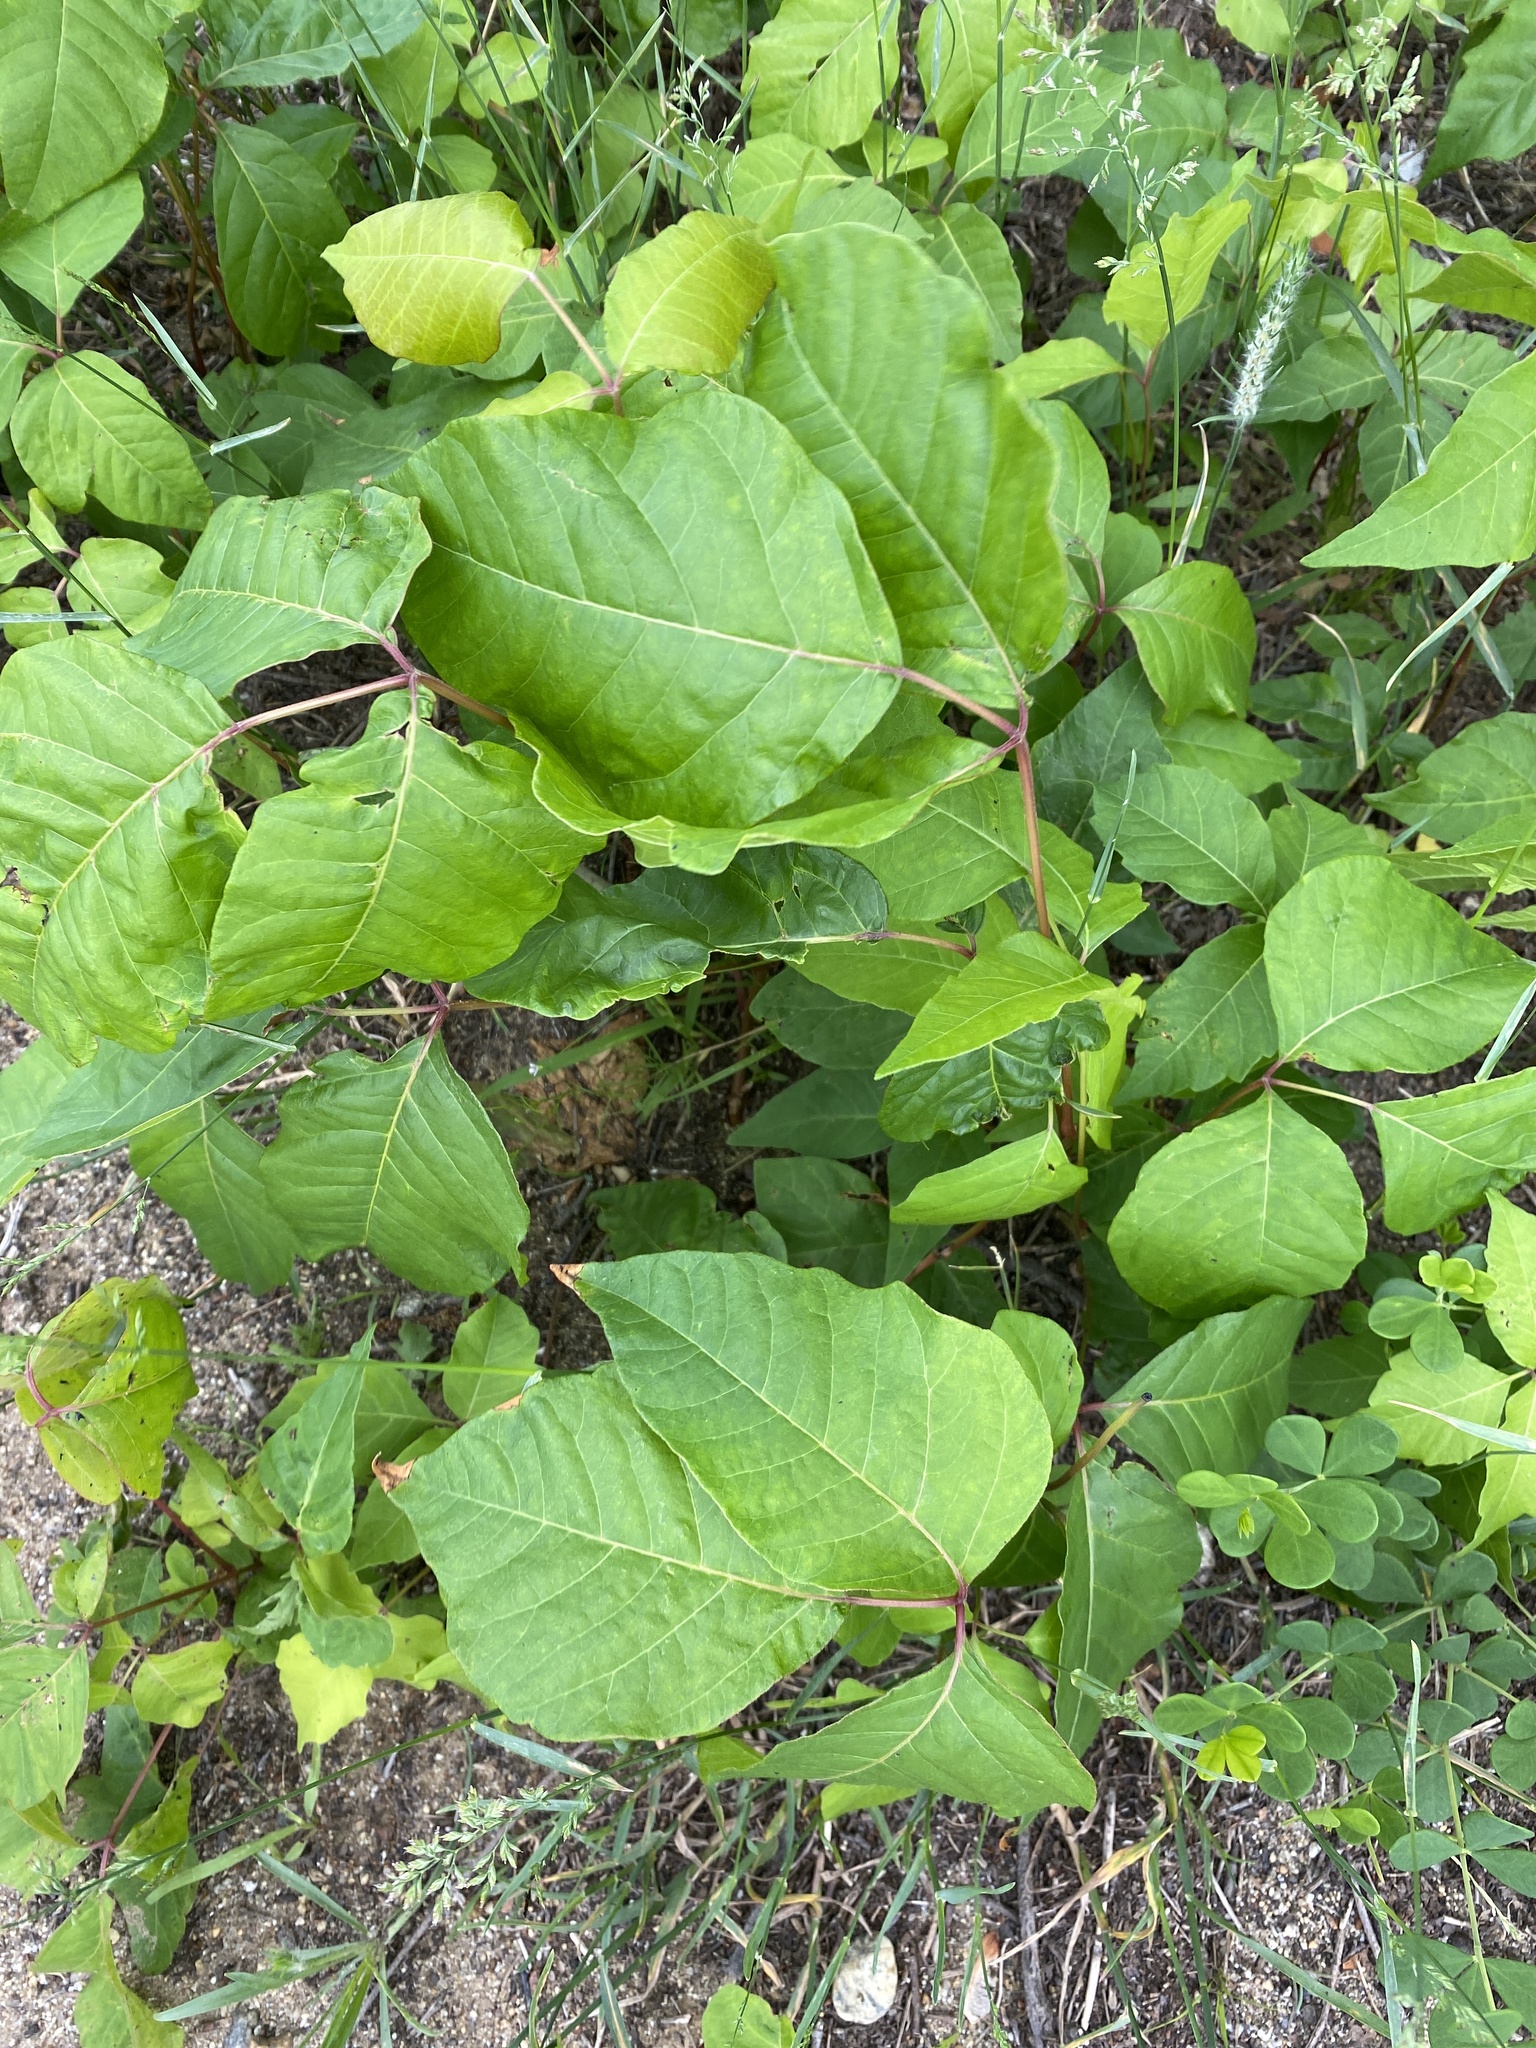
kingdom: Plantae
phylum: Tracheophyta
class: Magnoliopsida
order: Sapindales
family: Anacardiaceae
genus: Toxicodendron
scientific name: Toxicodendron radicans
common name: Poison ivy
